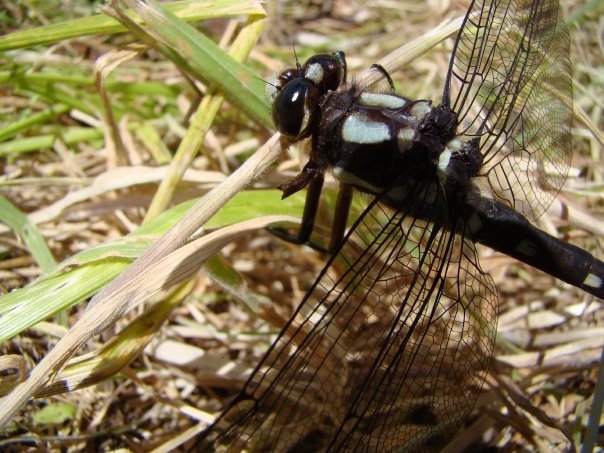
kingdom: Animalia
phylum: Arthropoda
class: Insecta
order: Odonata
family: Petaluridae
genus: Uropetala
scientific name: Uropetala carovei
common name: Bush giant dragonfly
